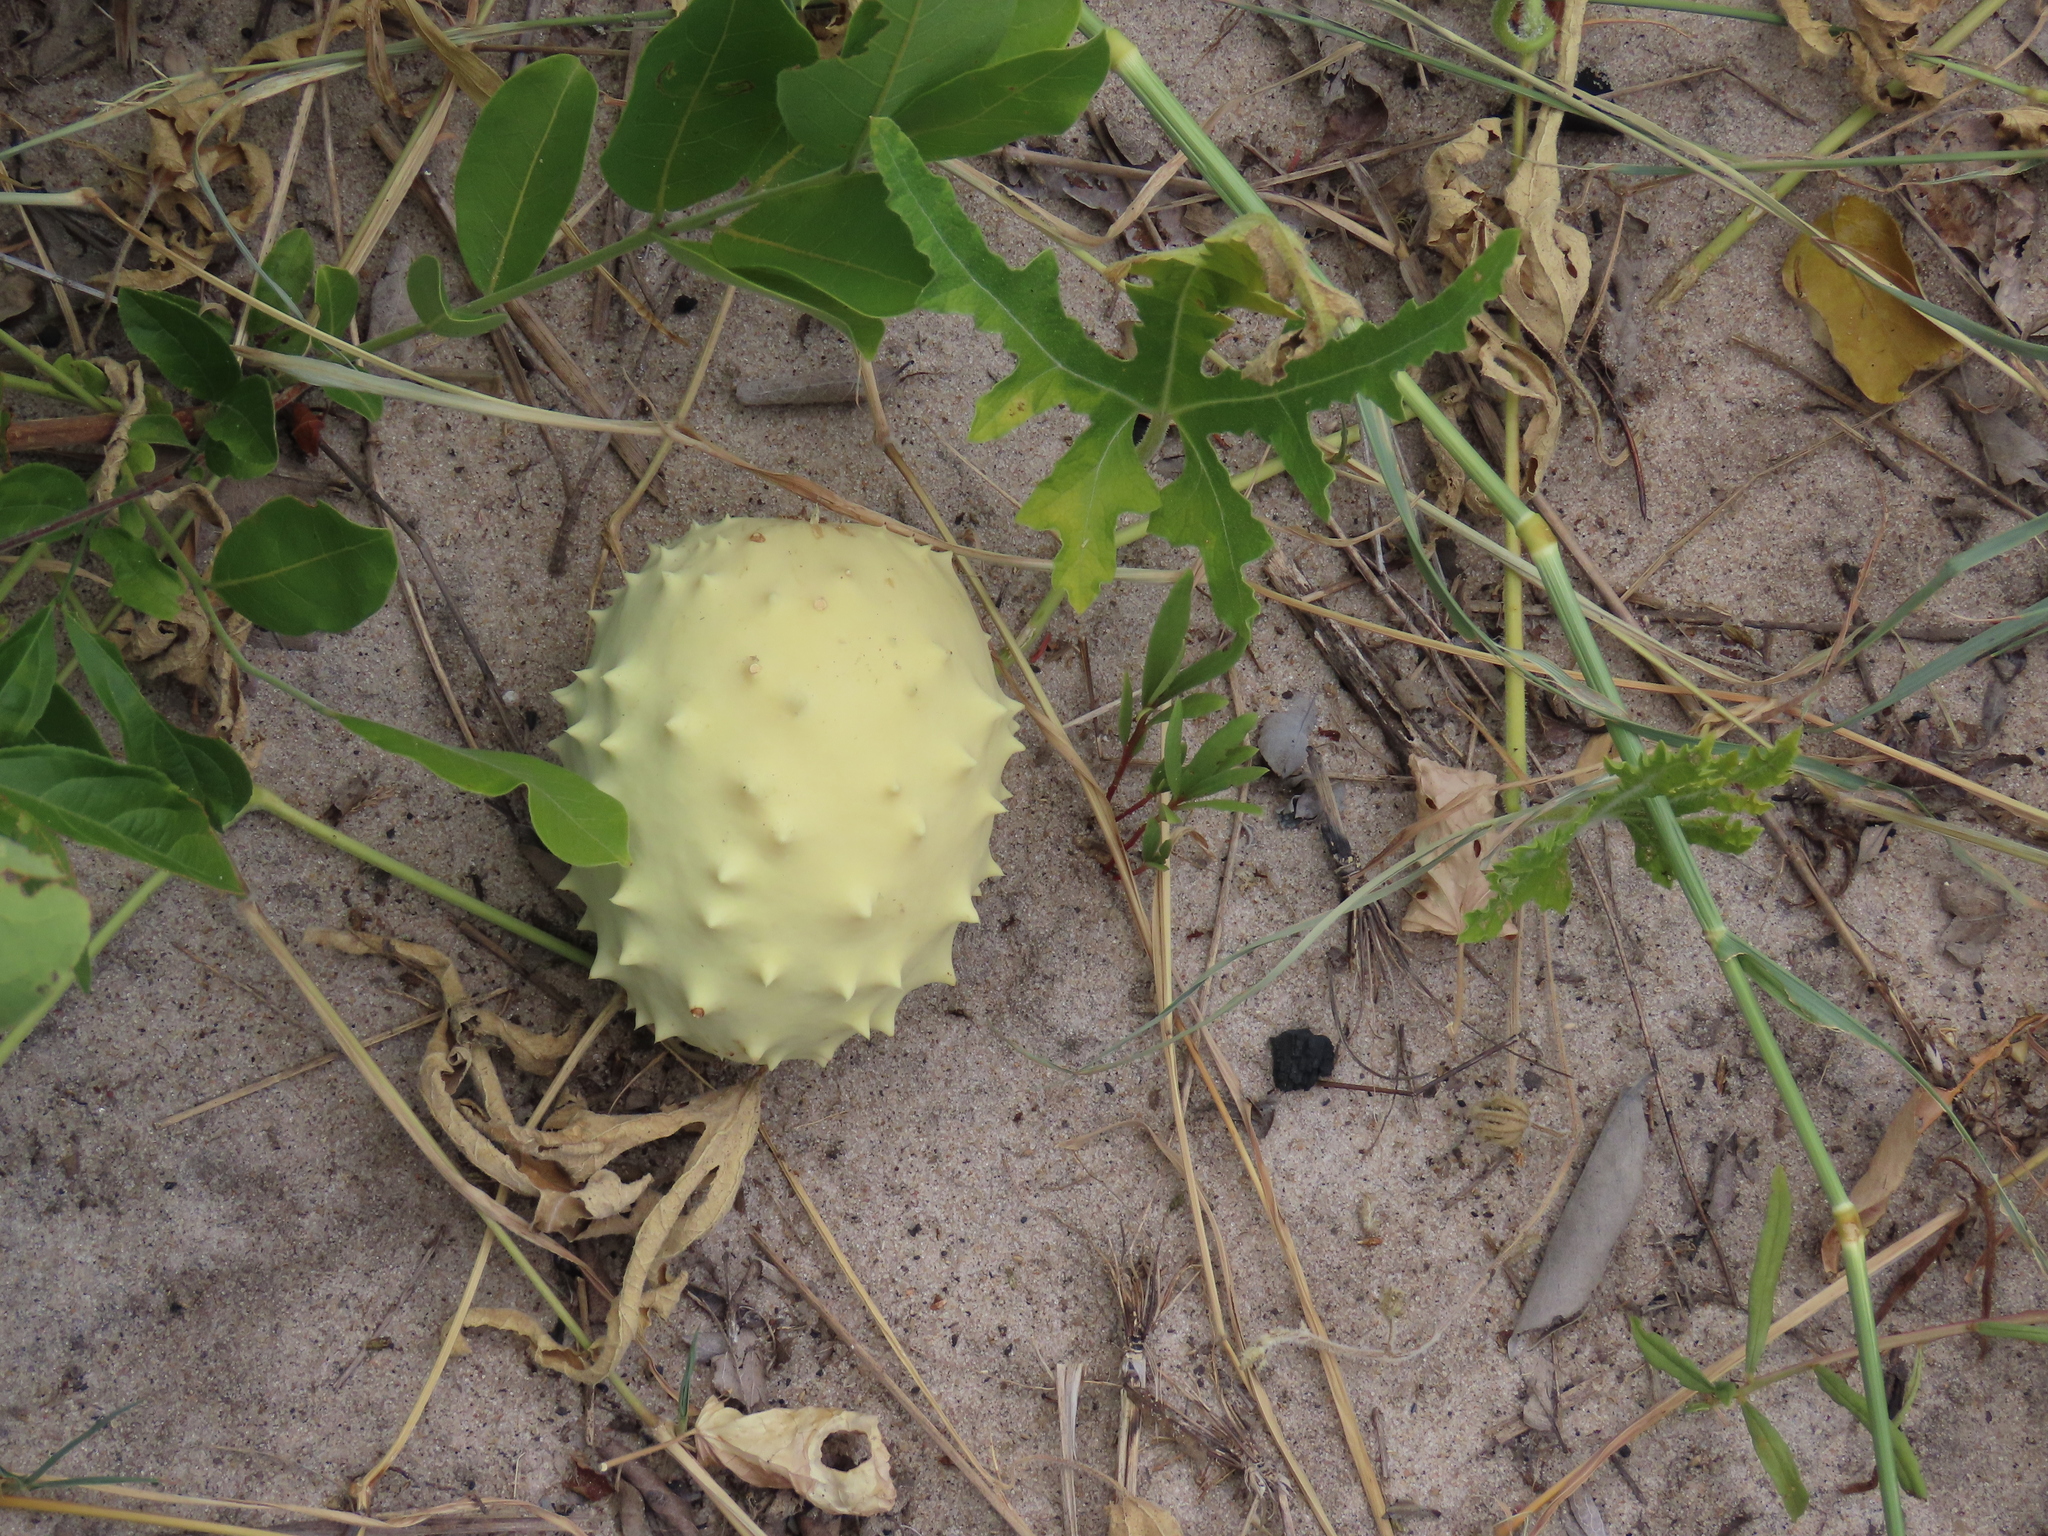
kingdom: Plantae
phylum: Tracheophyta
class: Magnoliopsida
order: Cucurbitales
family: Cucurbitaceae
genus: Citrullus
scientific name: Citrullus naudinianus
